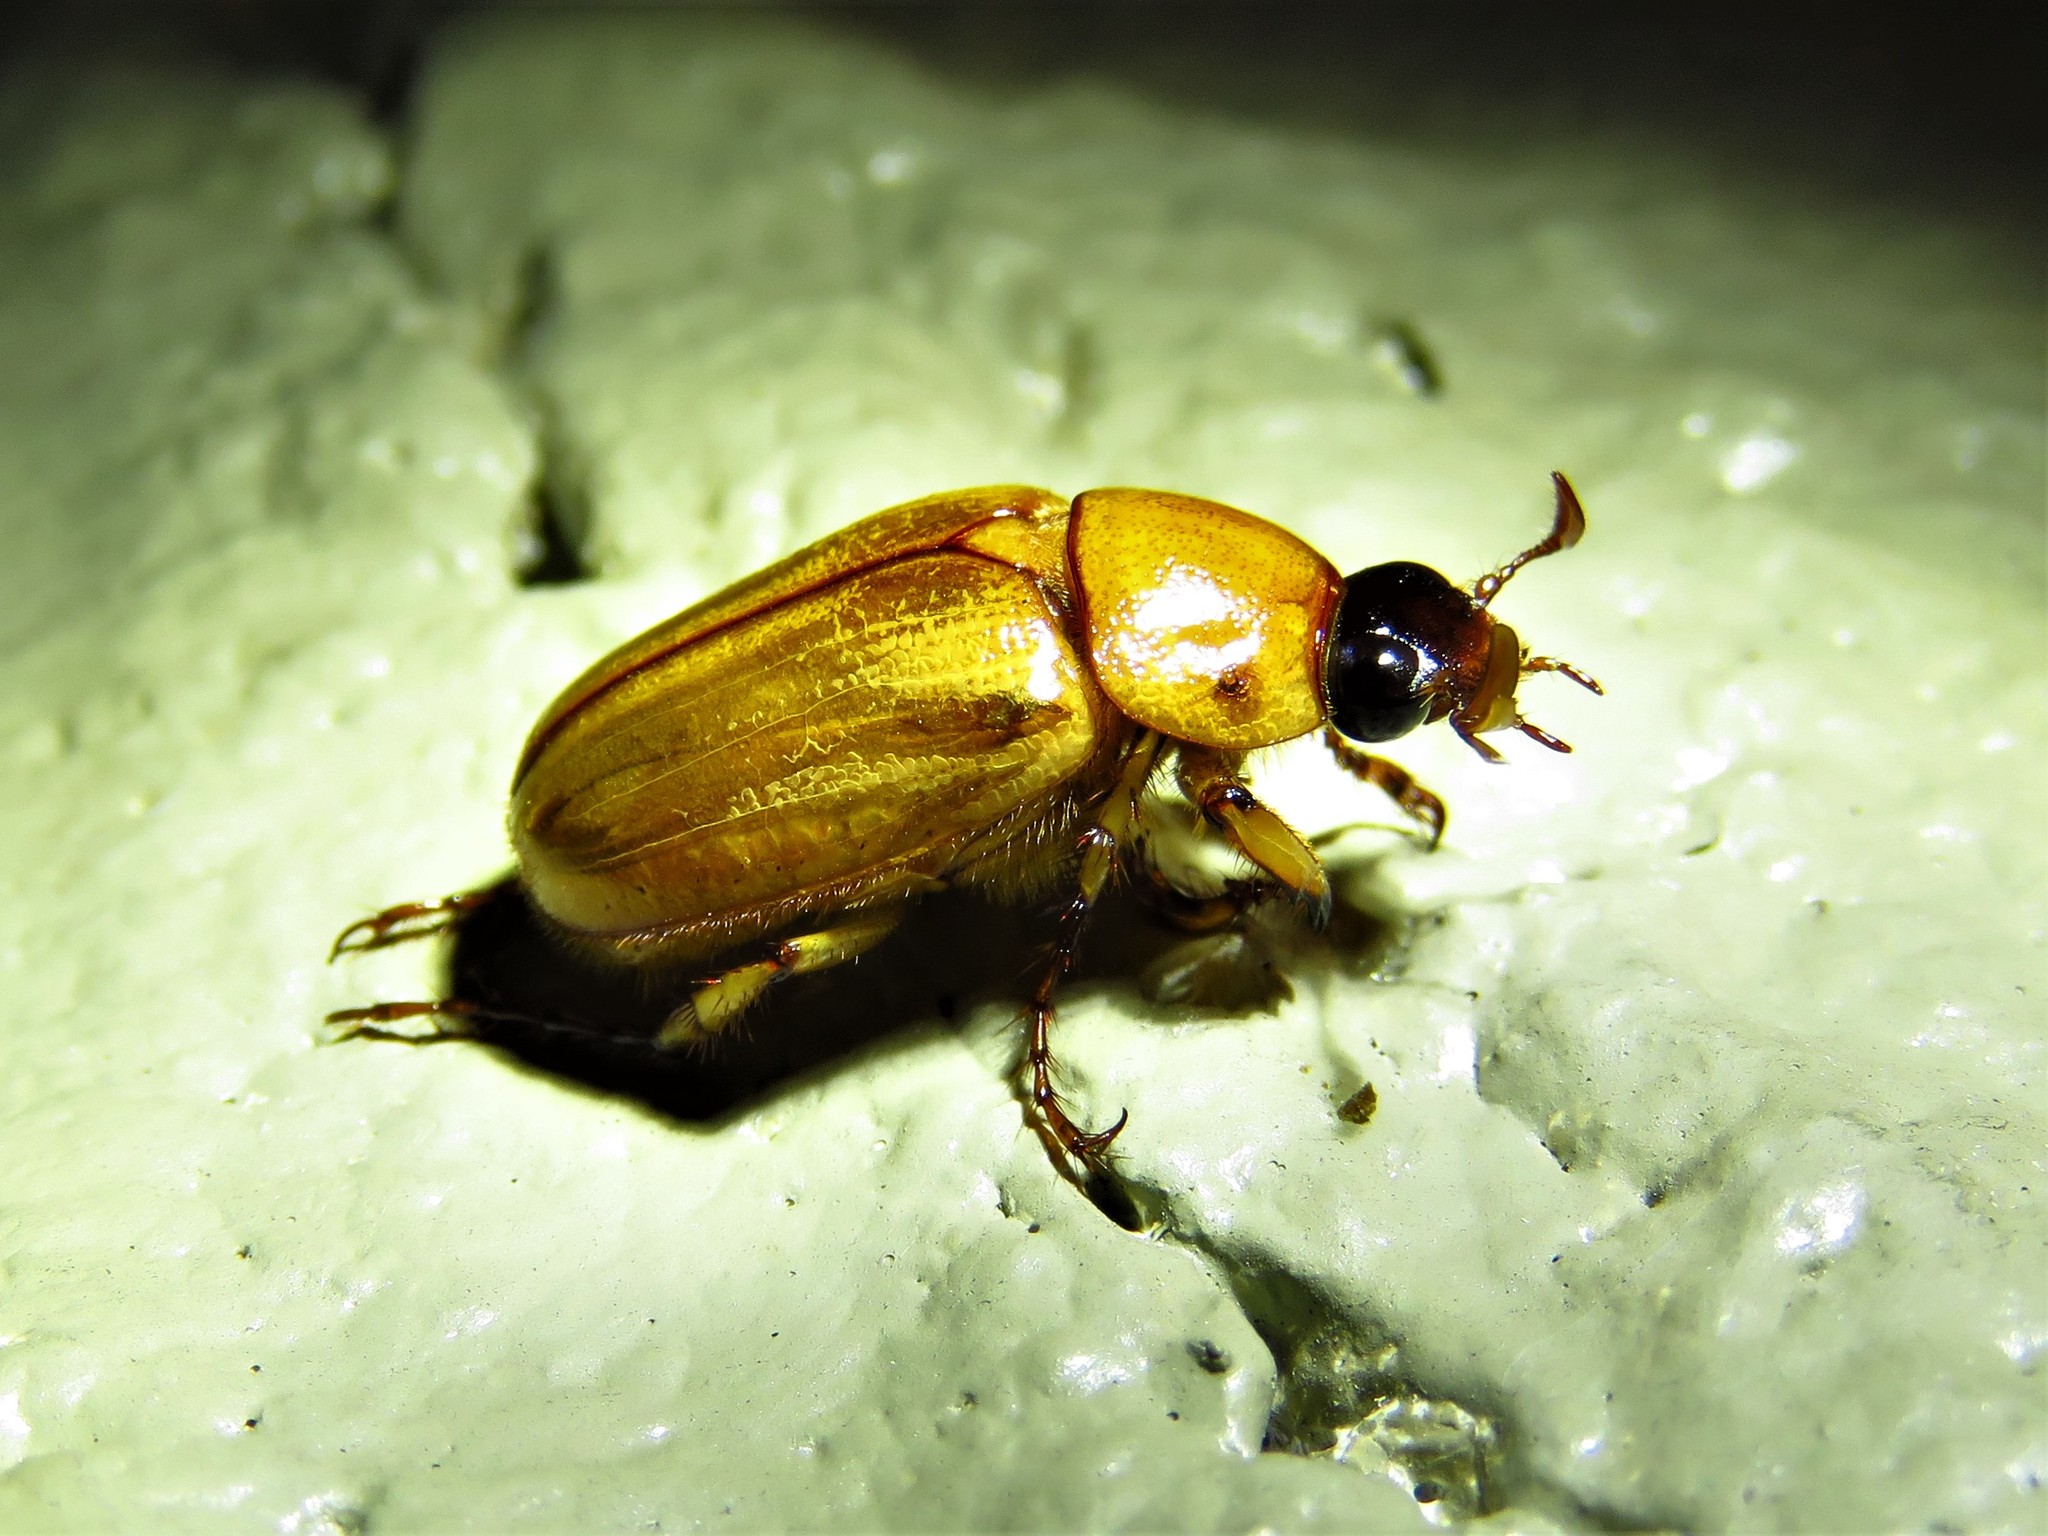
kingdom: Animalia
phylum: Arthropoda
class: Insecta
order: Coleoptera
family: Scarabaeidae
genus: Cyclocephala
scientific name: Cyclocephala lurida
